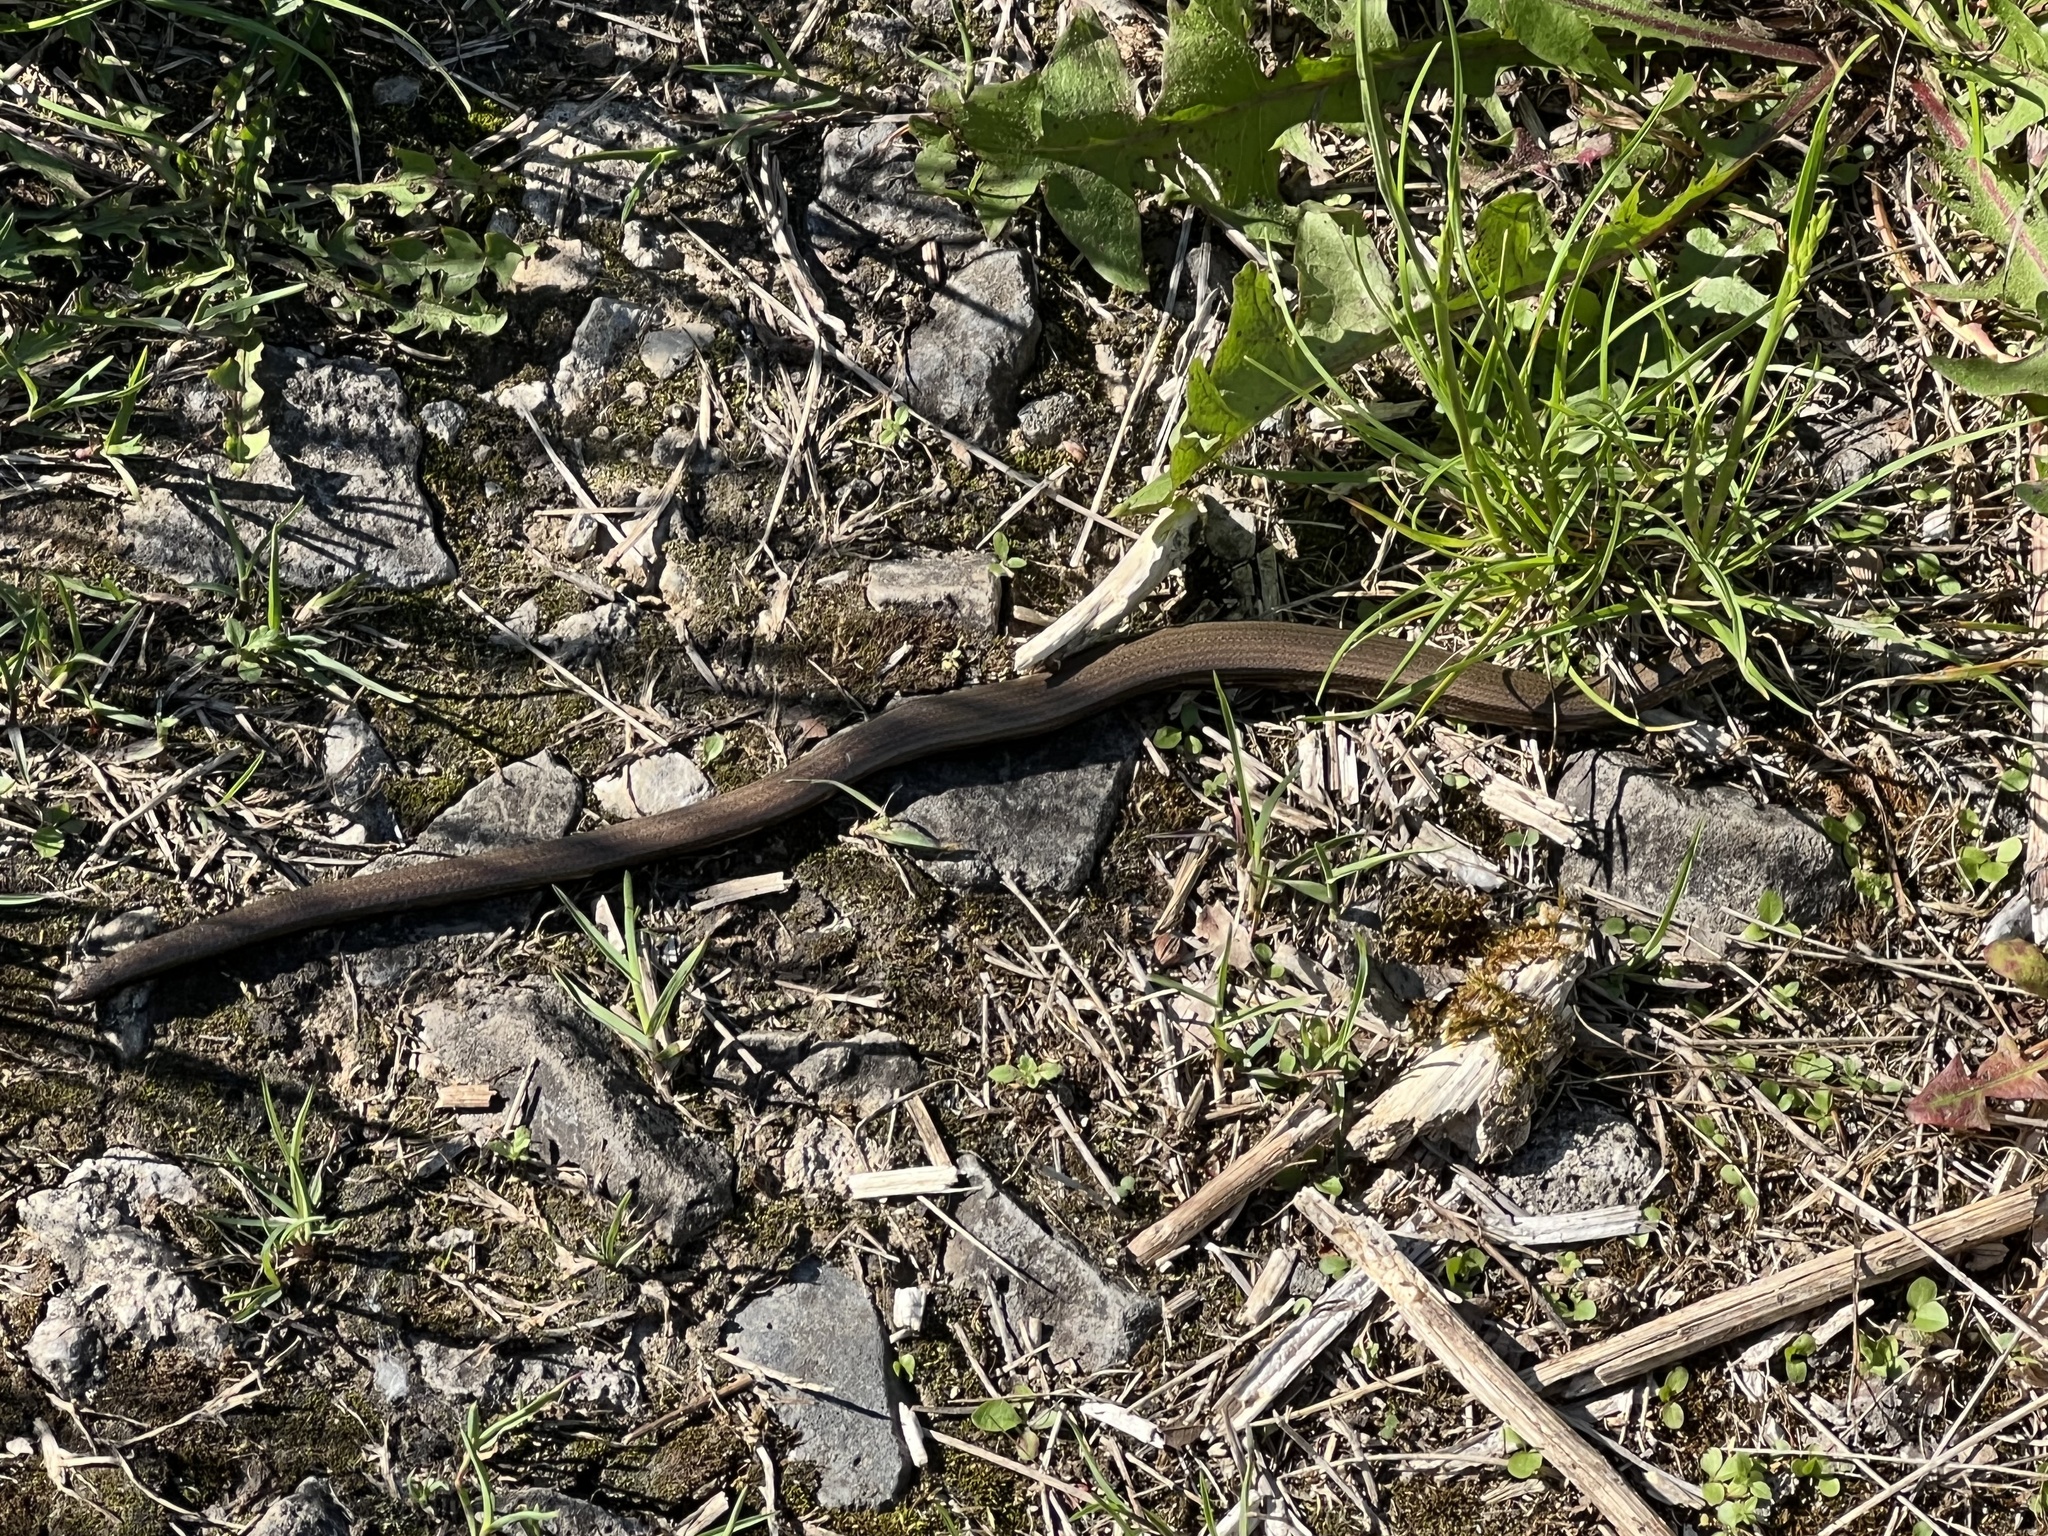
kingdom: Animalia
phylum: Chordata
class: Squamata
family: Anguidae
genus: Anguis
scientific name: Anguis fragilis
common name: Slow worm
